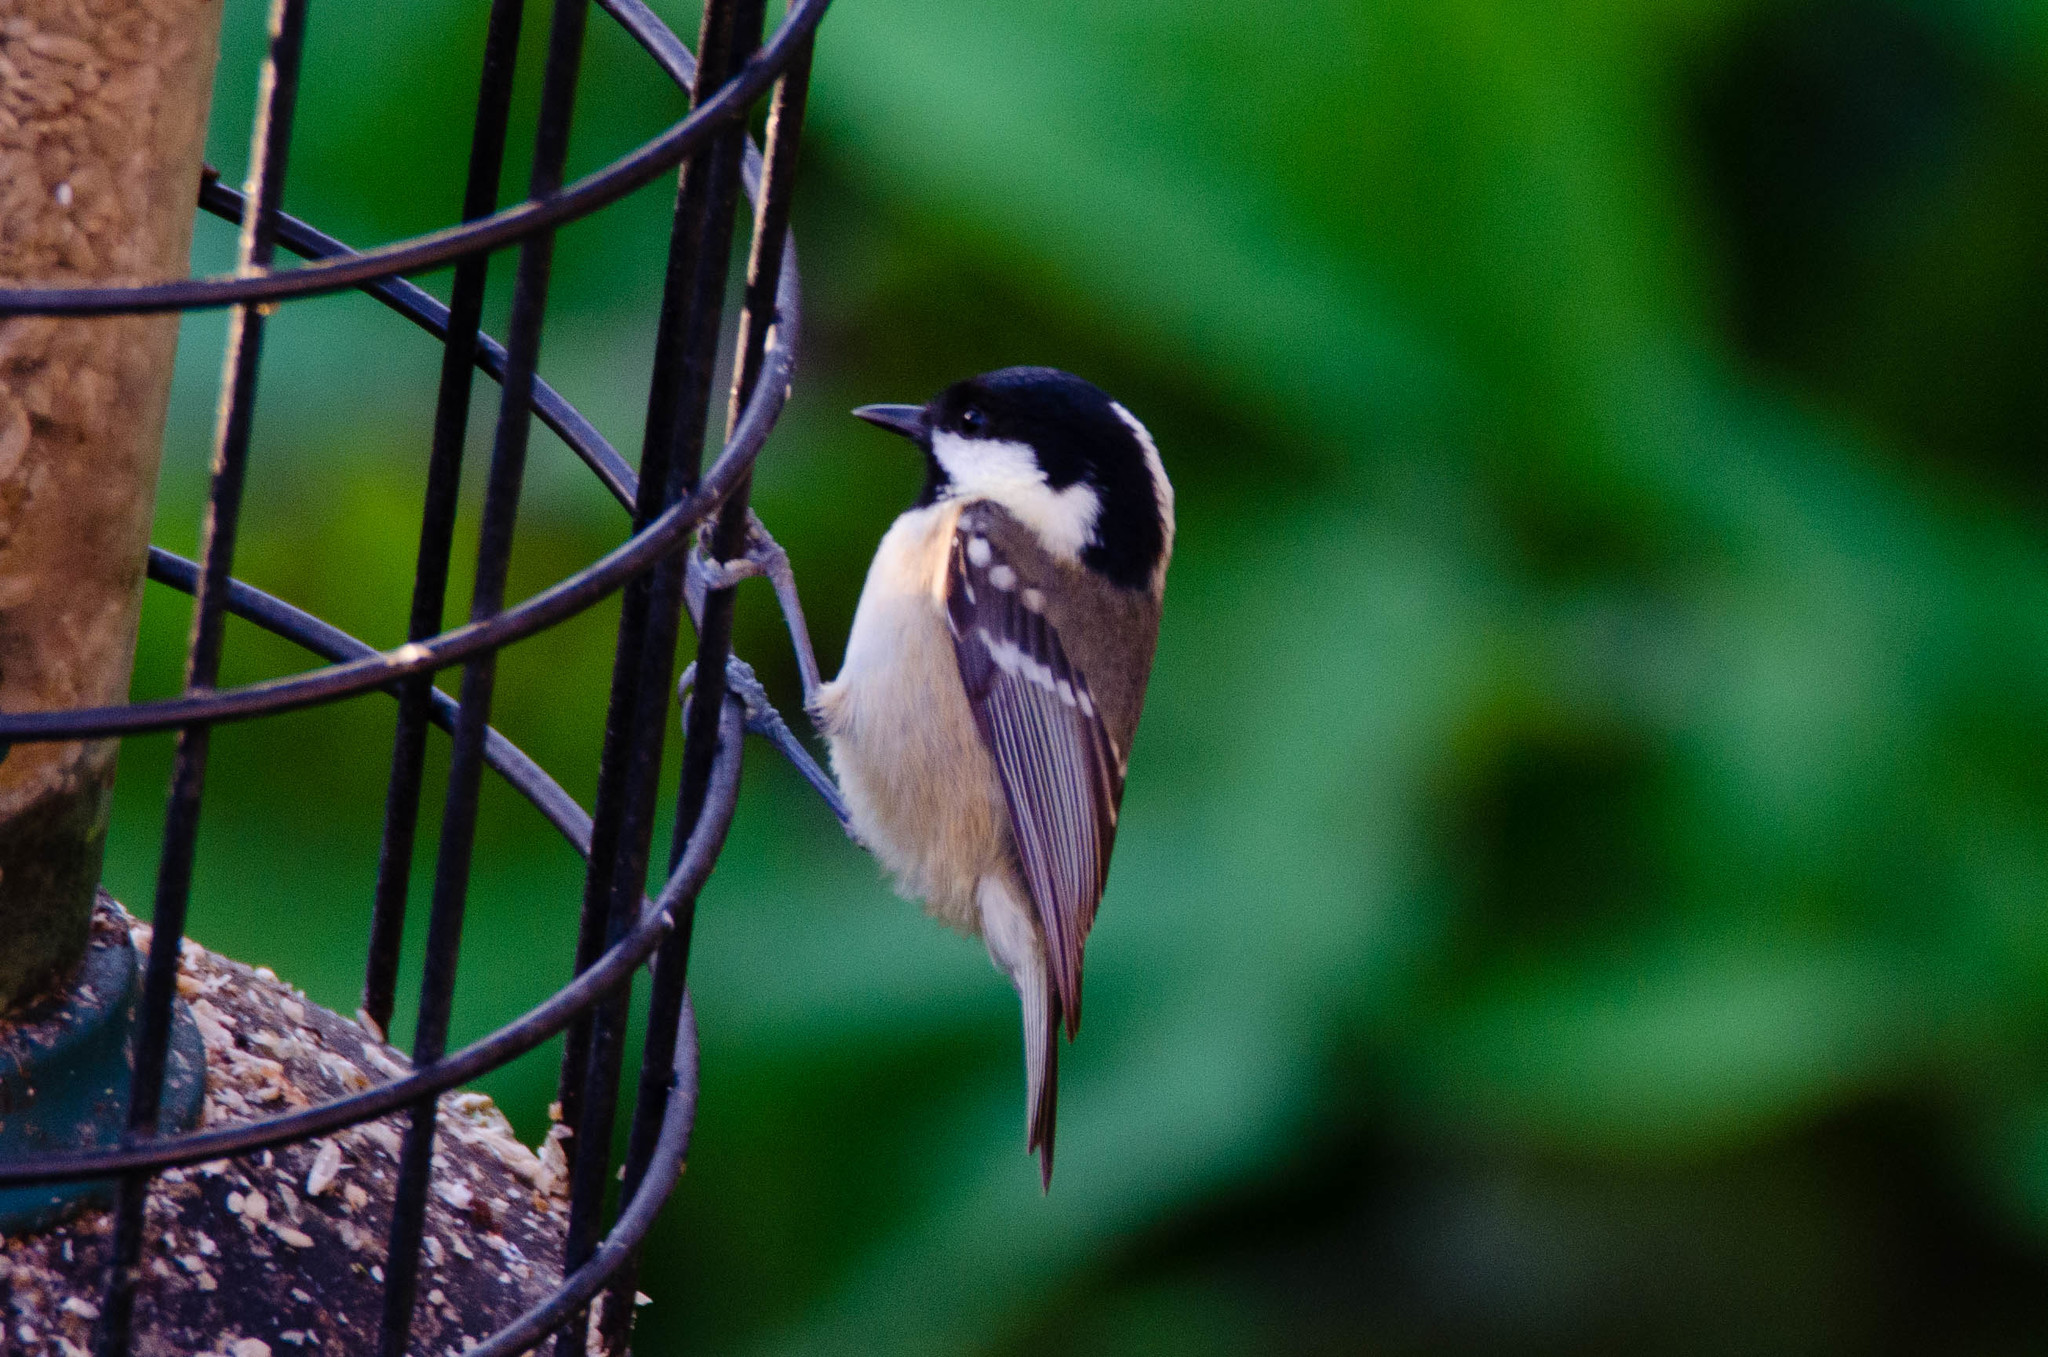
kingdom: Animalia
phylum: Chordata
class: Aves
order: Passeriformes
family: Paridae
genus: Periparus
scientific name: Periparus ater
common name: Coal tit
